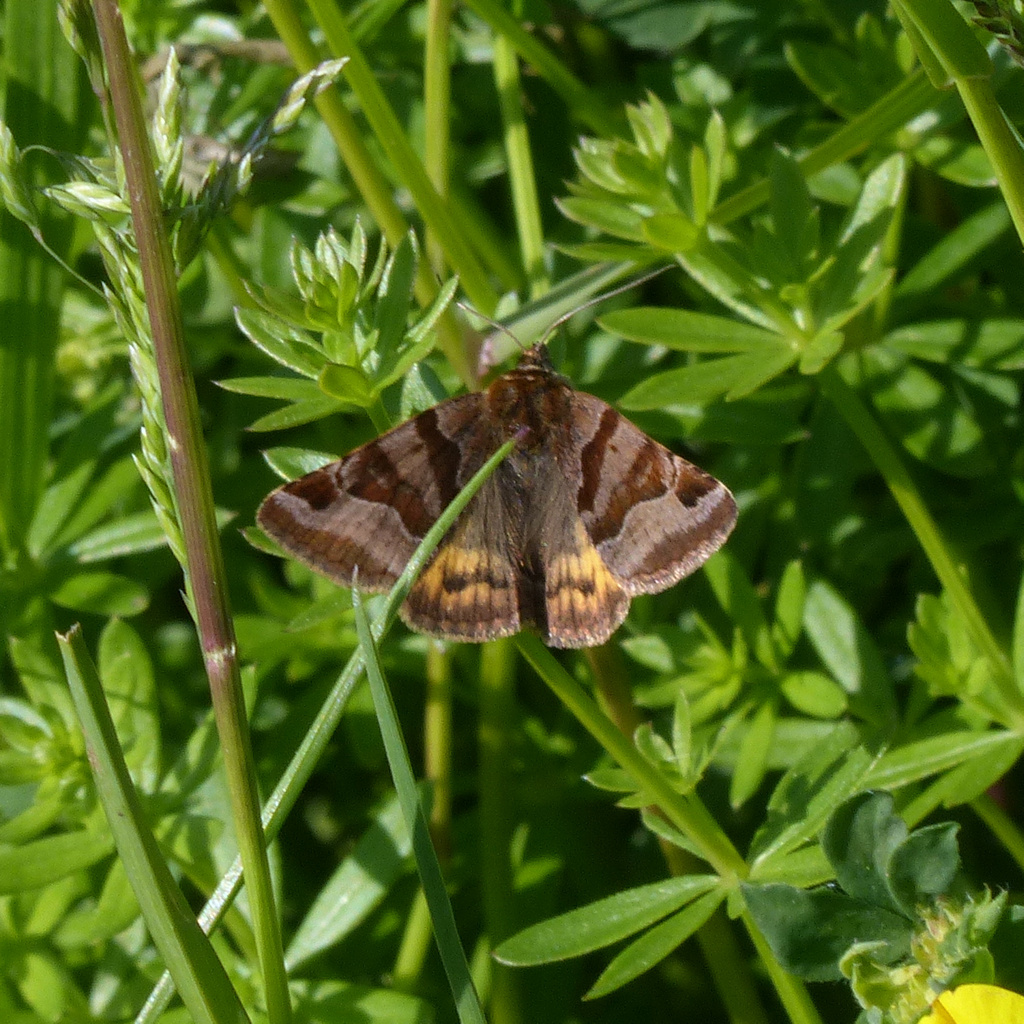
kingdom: Animalia
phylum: Arthropoda
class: Insecta
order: Lepidoptera
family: Erebidae
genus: Euclidia
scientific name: Euclidia glyphica
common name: Burnet companion
